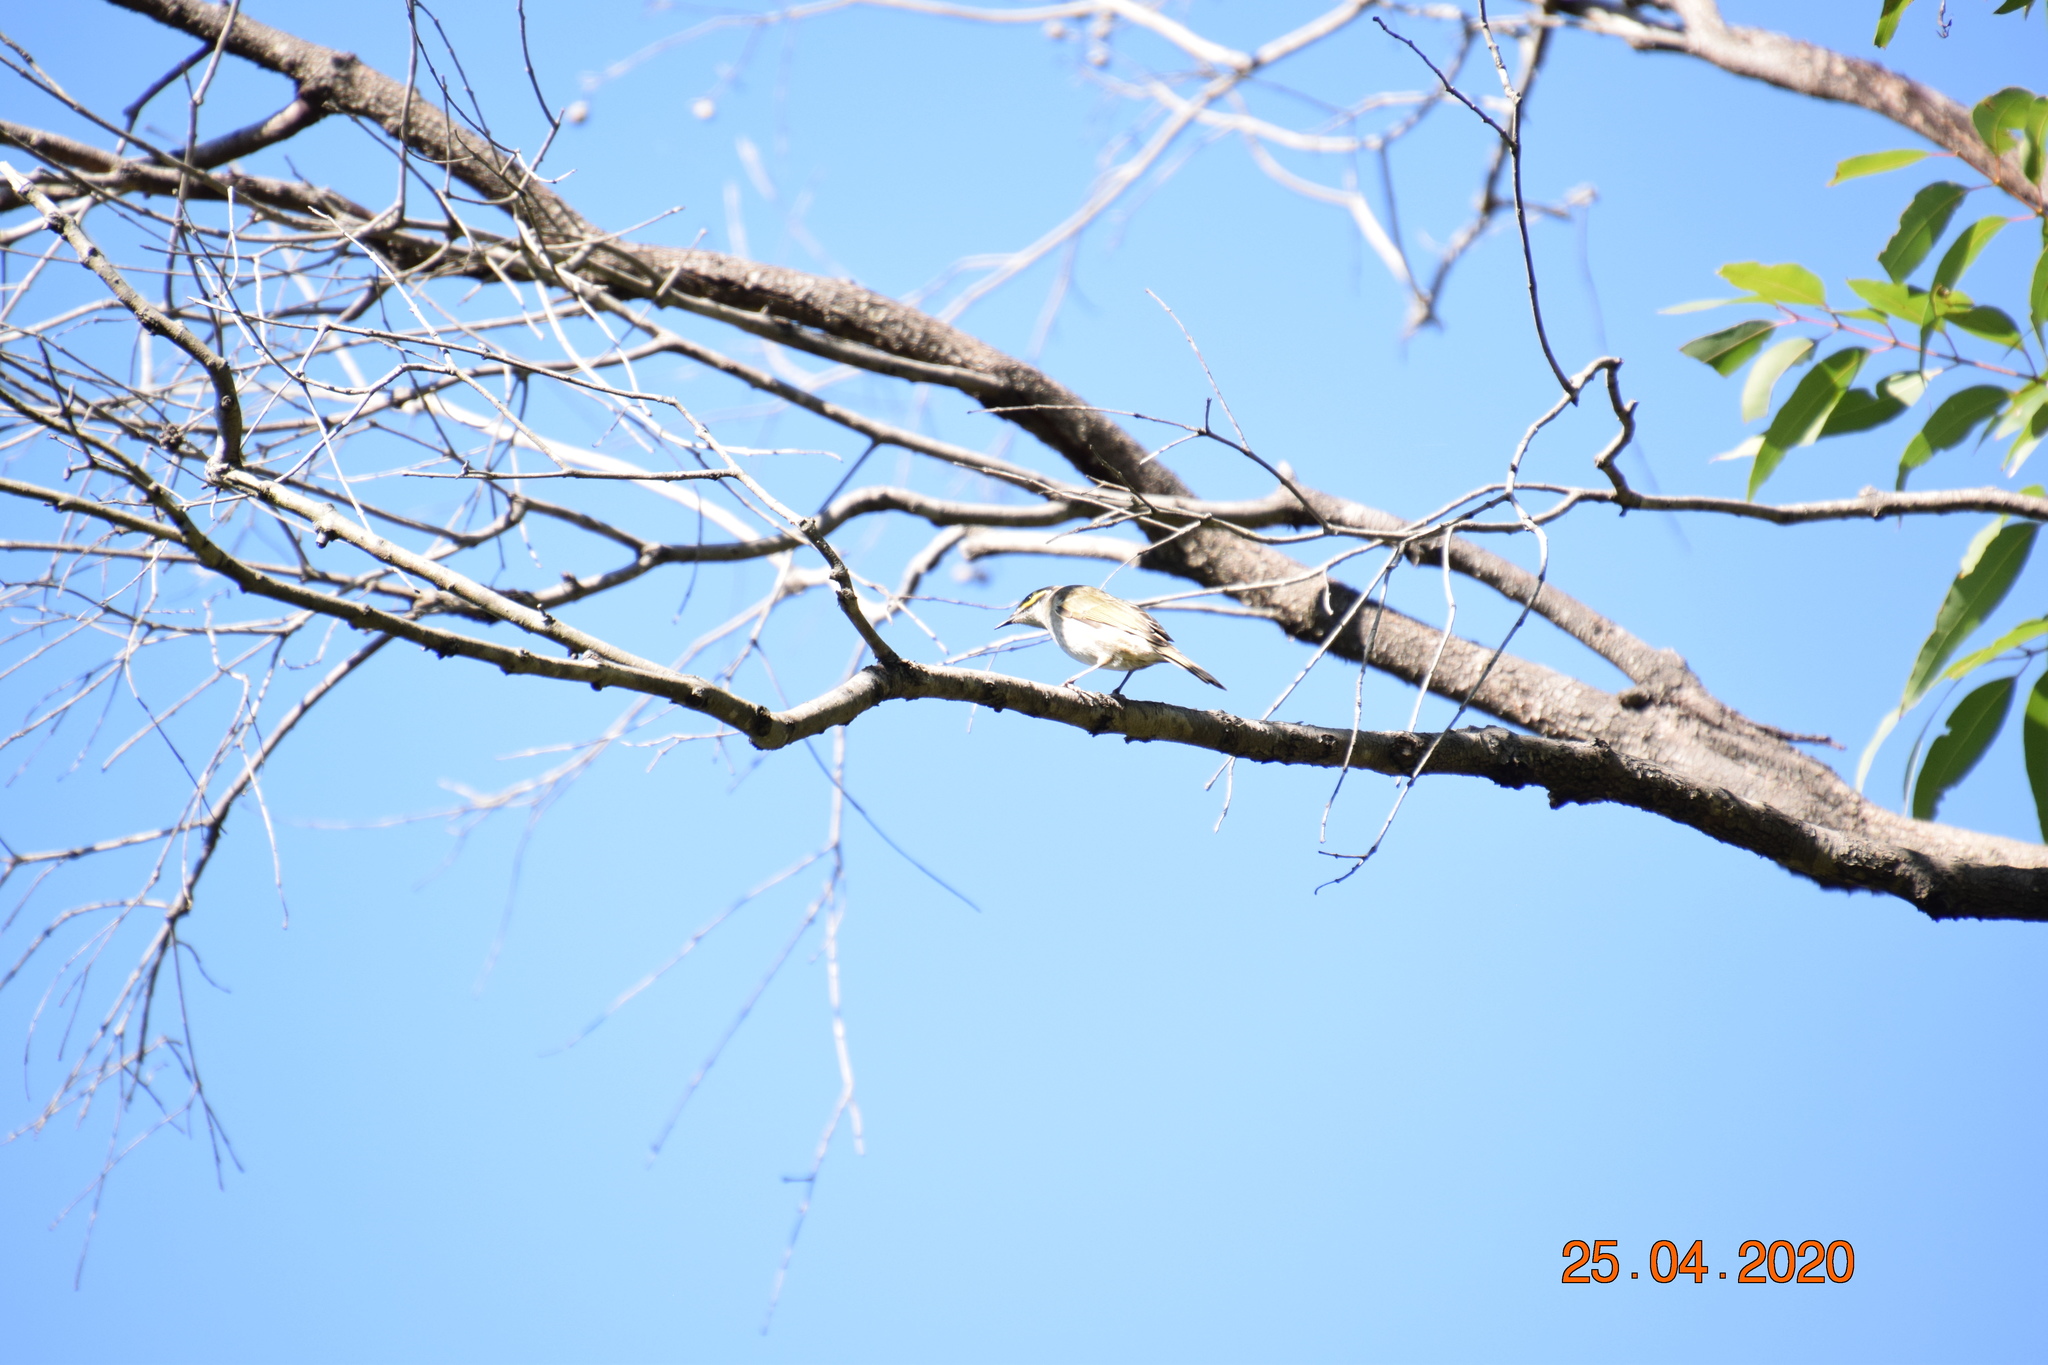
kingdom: Animalia
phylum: Chordata
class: Aves
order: Passeriformes
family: Meliphagidae
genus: Caligavis
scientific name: Caligavis chrysops
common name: Yellow-faced honeyeater
